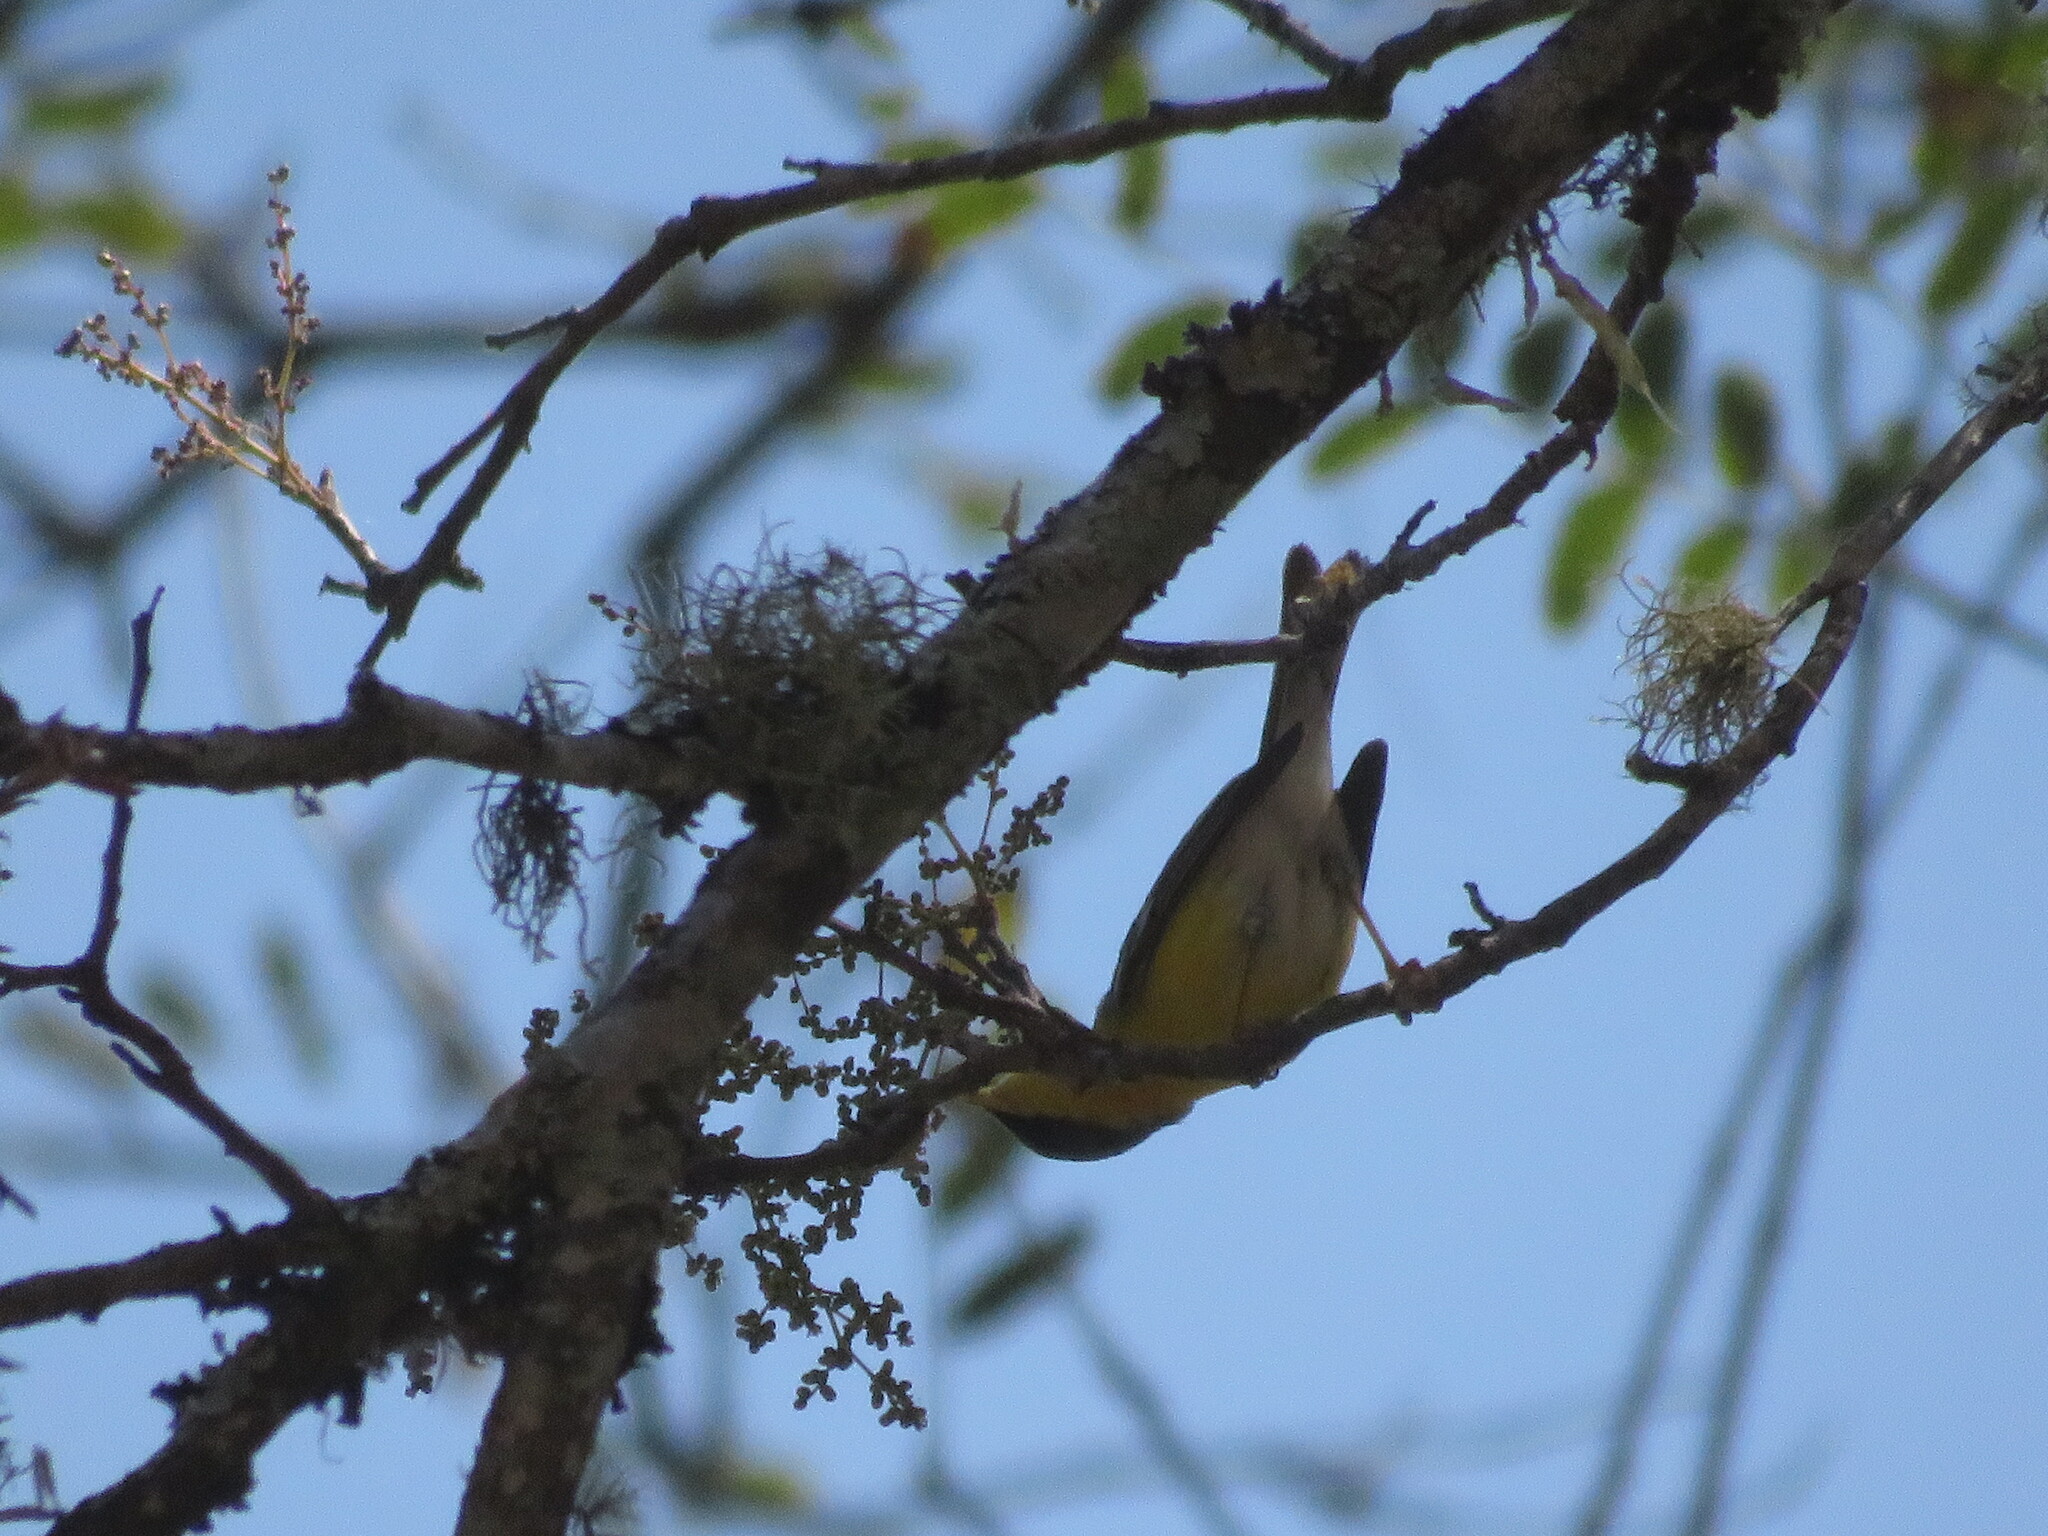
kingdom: Animalia
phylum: Chordata
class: Aves
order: Passeriformes
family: Parulidae
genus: Setophaga
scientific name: Setophaga pitiayumi
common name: Tropical parula
